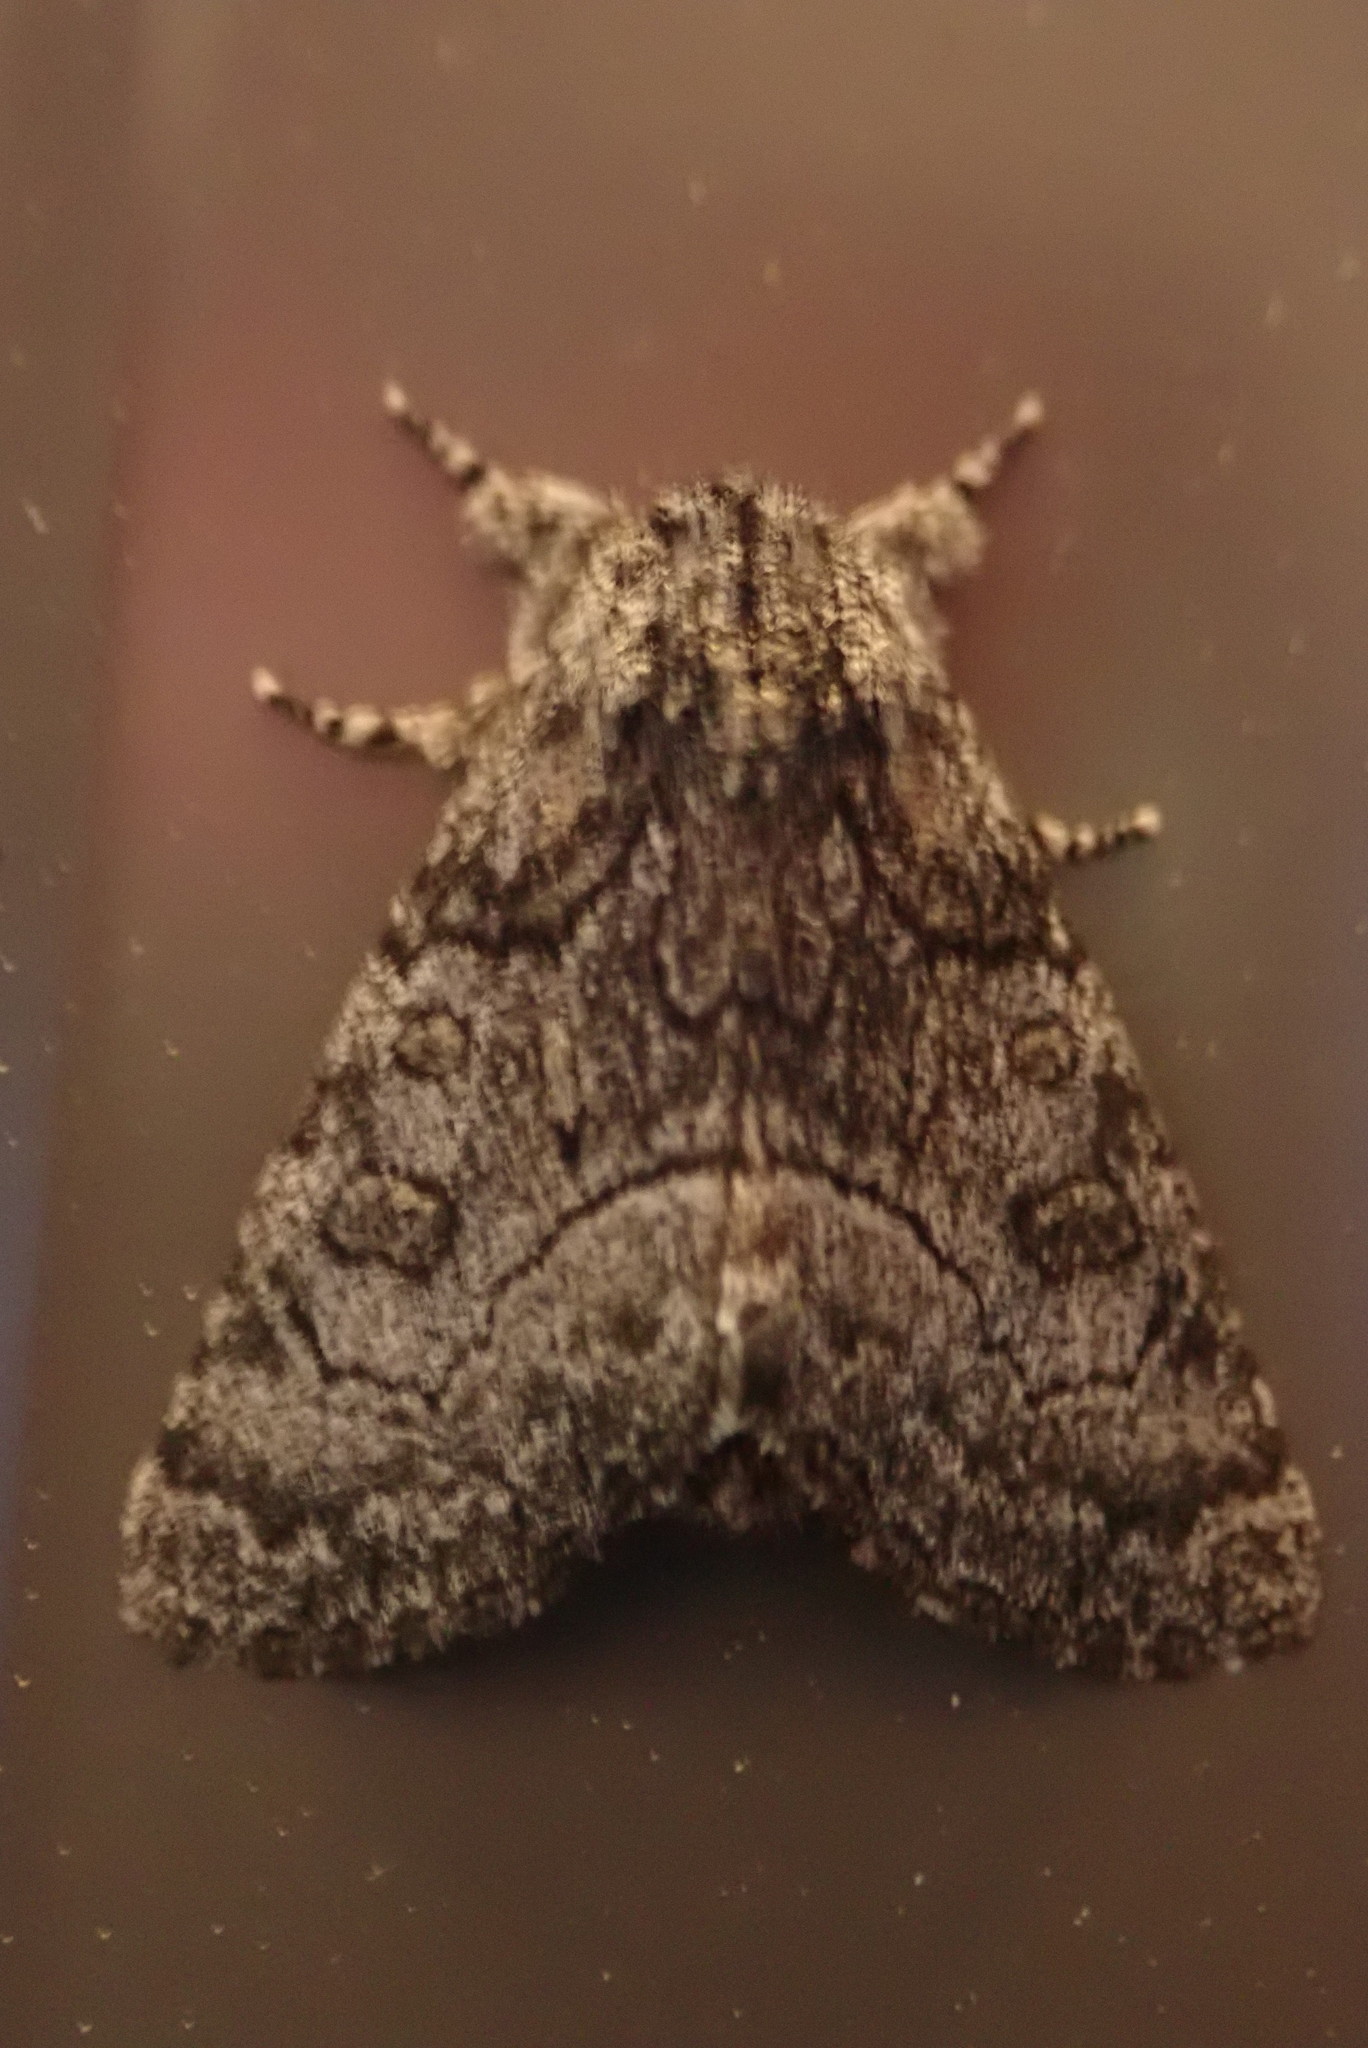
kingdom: Animalia
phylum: Arthropoda
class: Insecta
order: Lepidoptera
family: Noctuidae
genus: Raphia
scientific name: Raphia frater
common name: Brother
